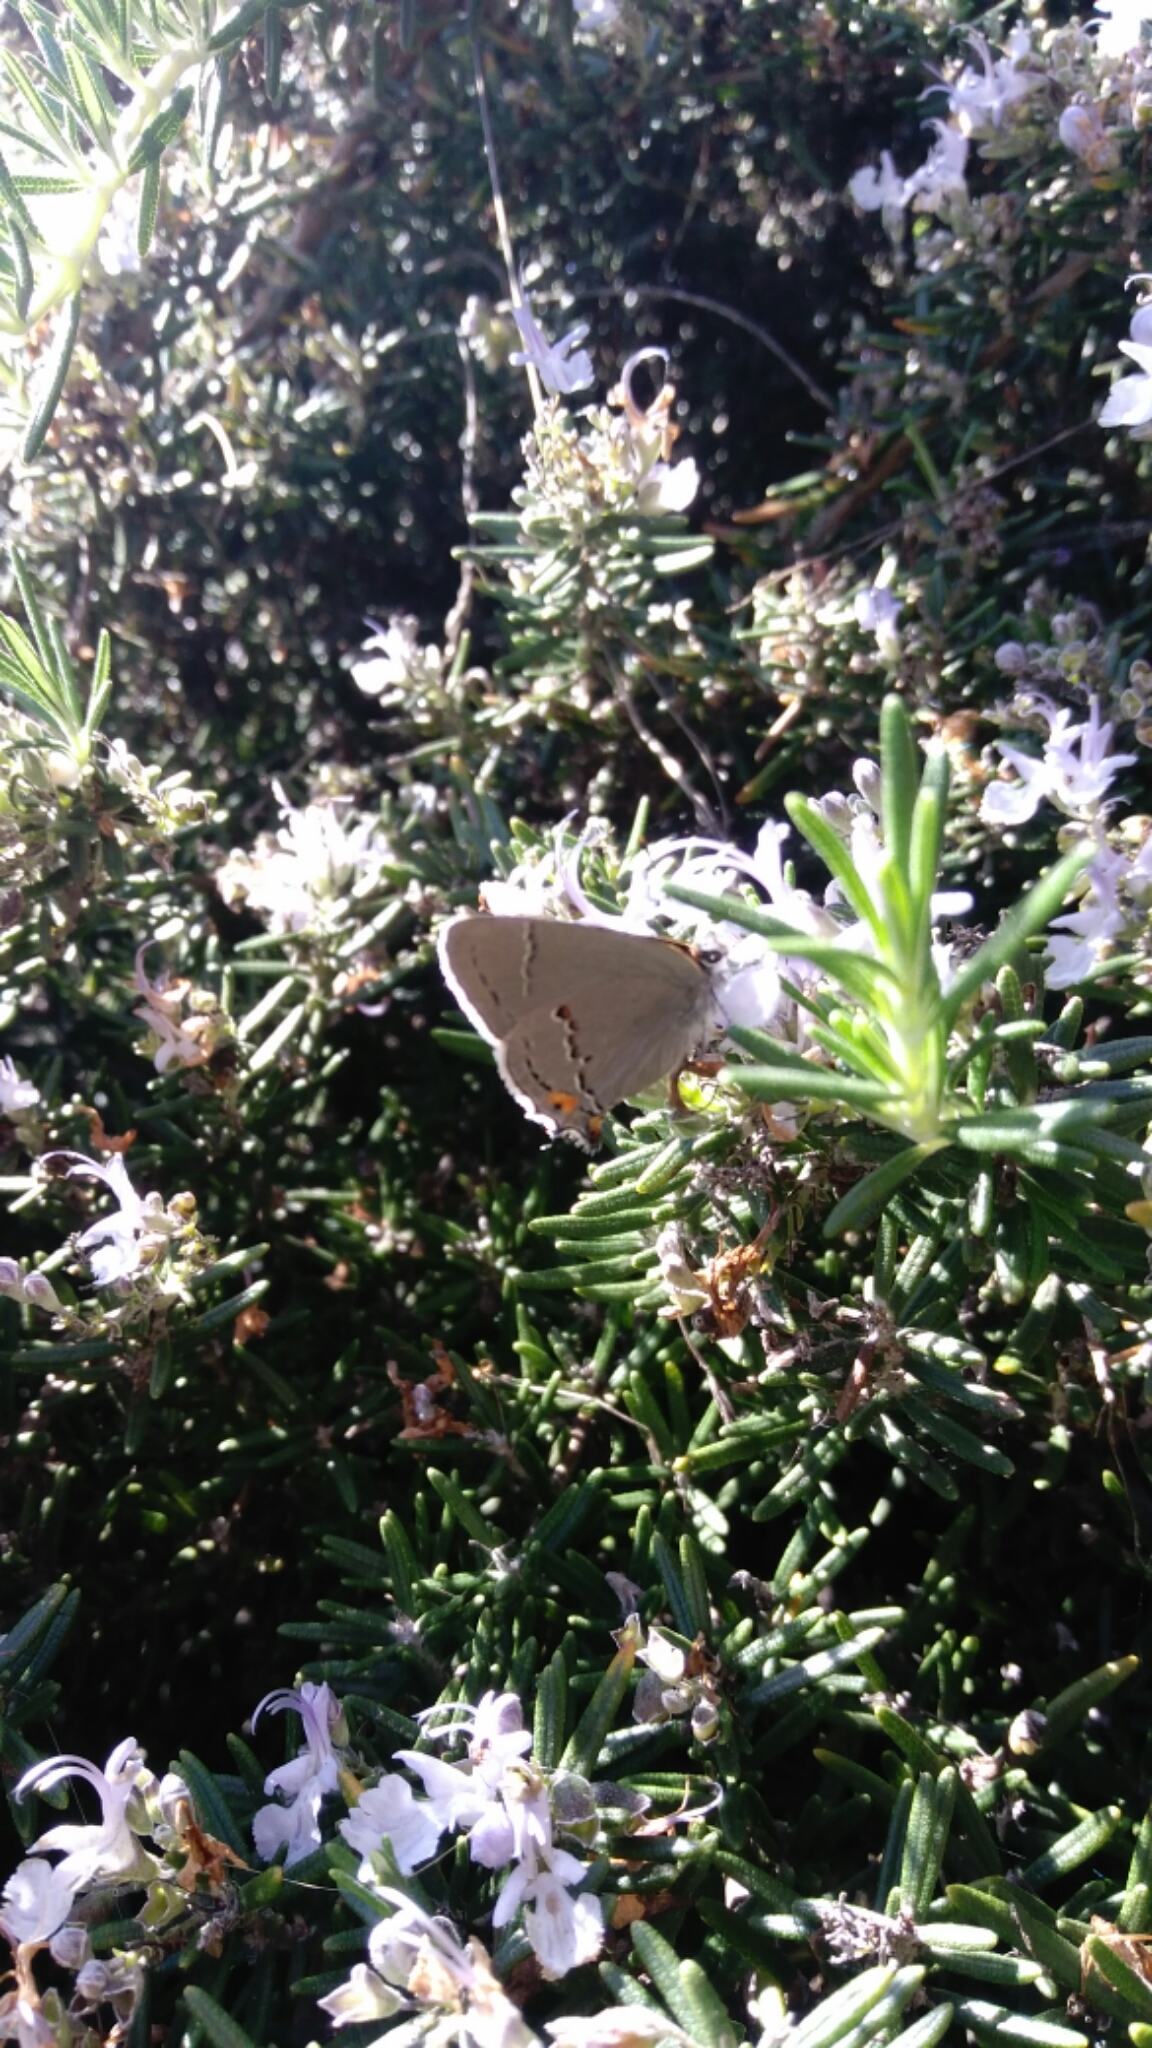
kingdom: Animalia
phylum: Arthropoda
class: Insecta
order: Lepidoptera
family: Lycaenidae
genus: Thecla
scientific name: Thecla pudica
